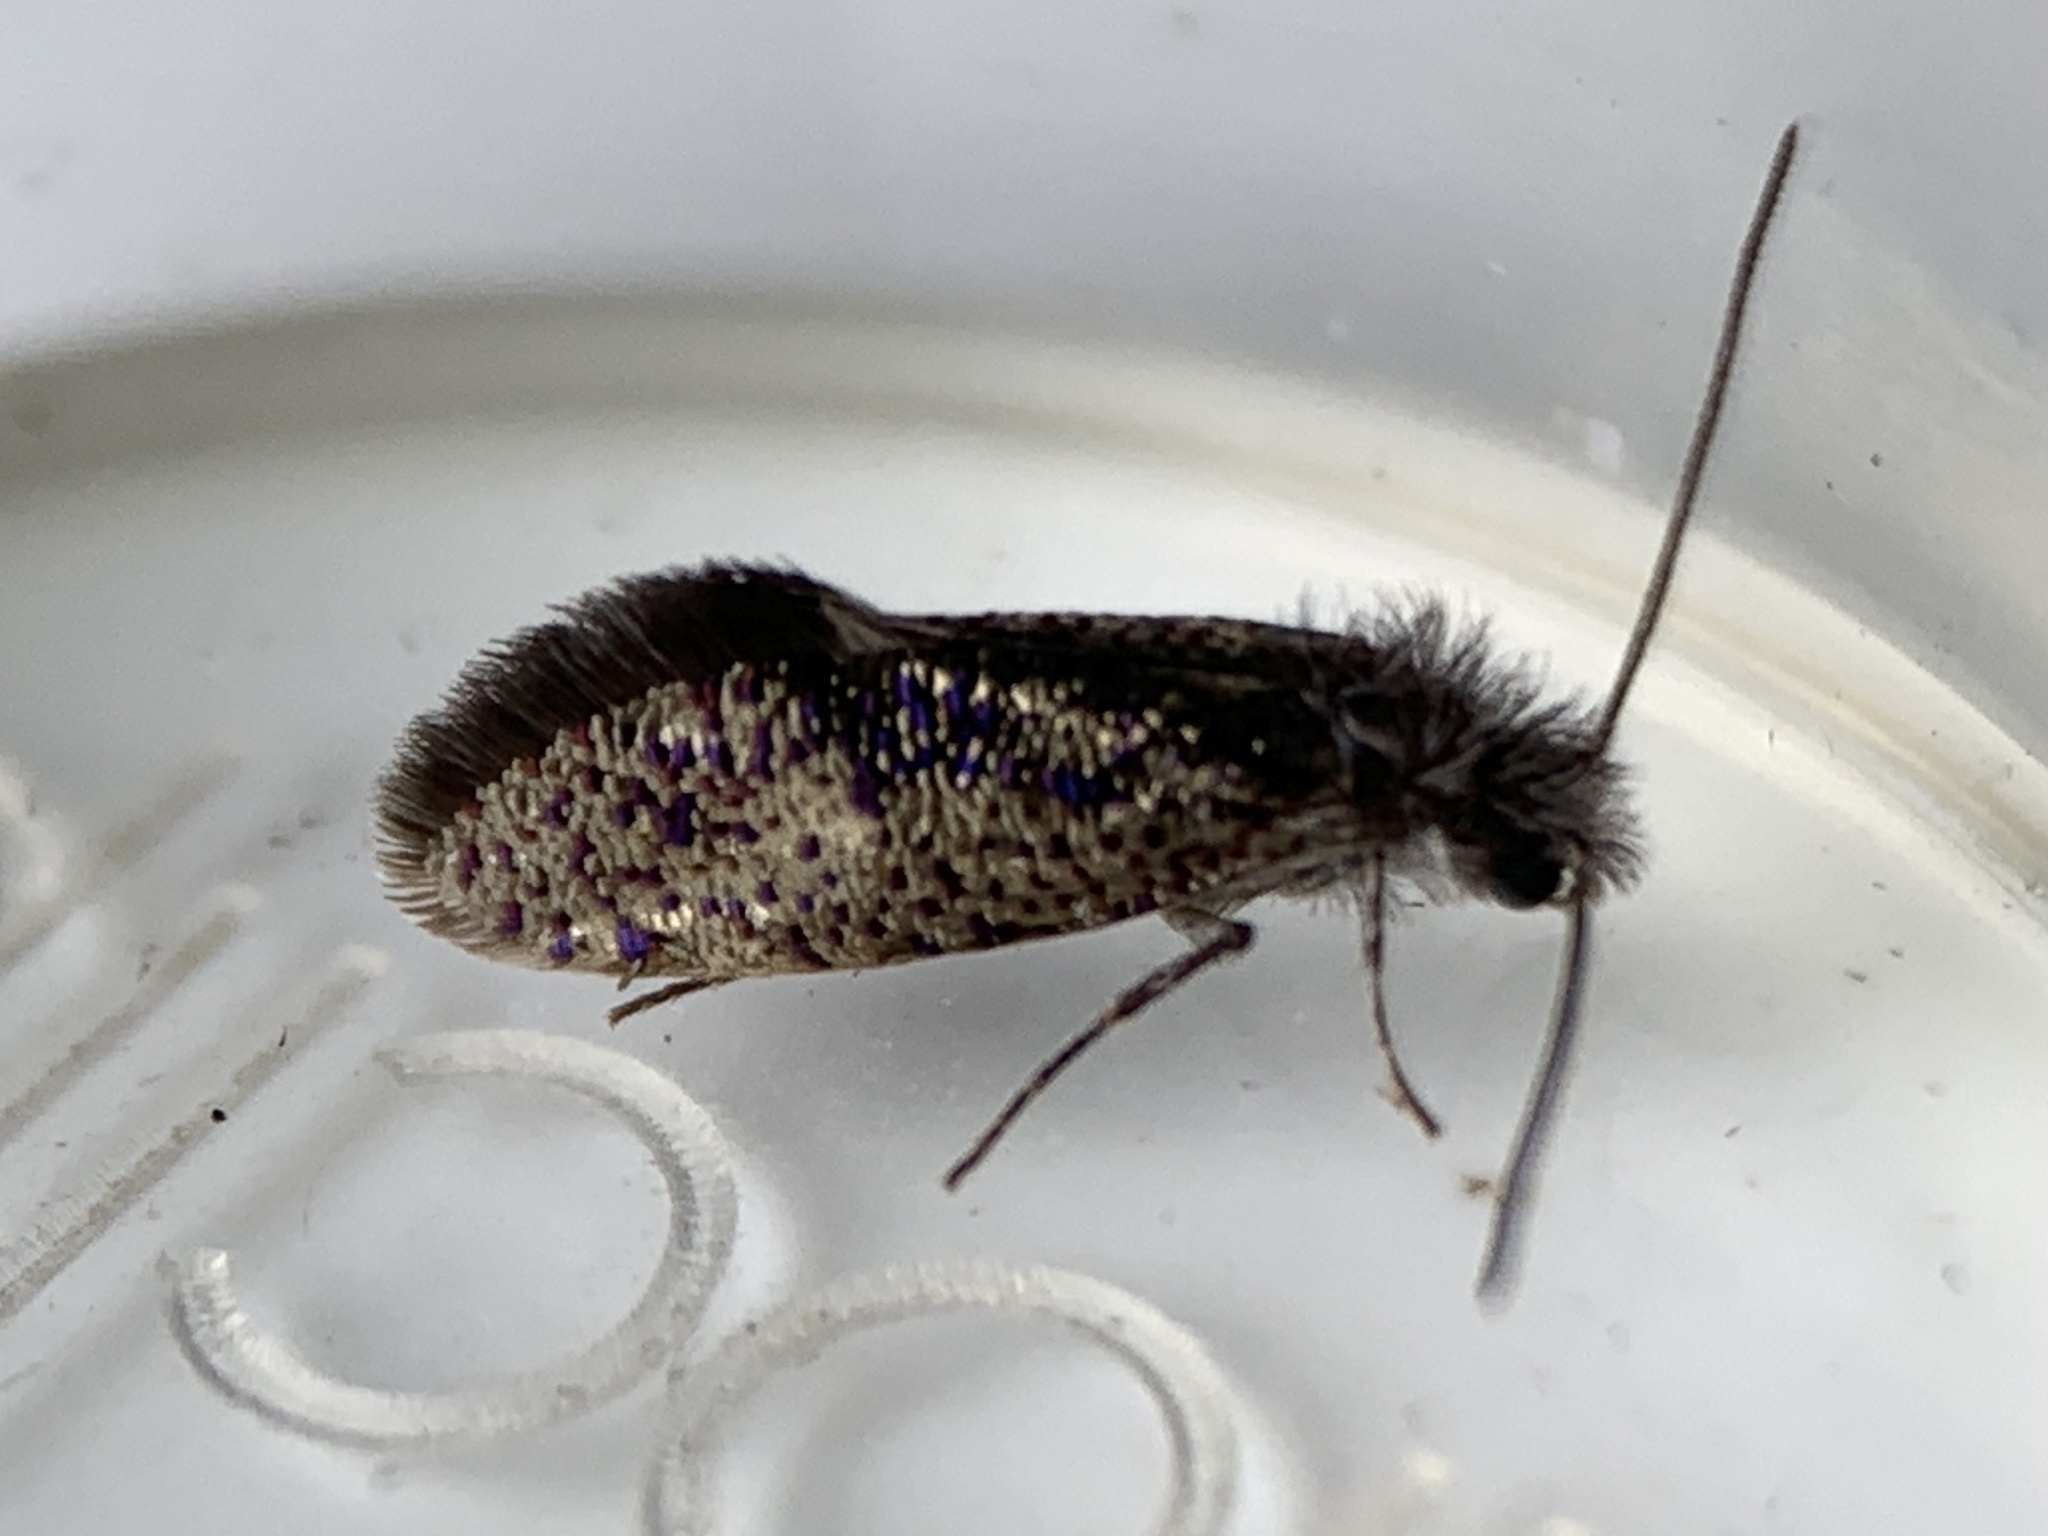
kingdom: Animalia
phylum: Arthropoda
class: Insecta
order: Lepidoptera
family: Eriocraniidae
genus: Dyseriocrania
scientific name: Dyseriocrania griseocapitella
